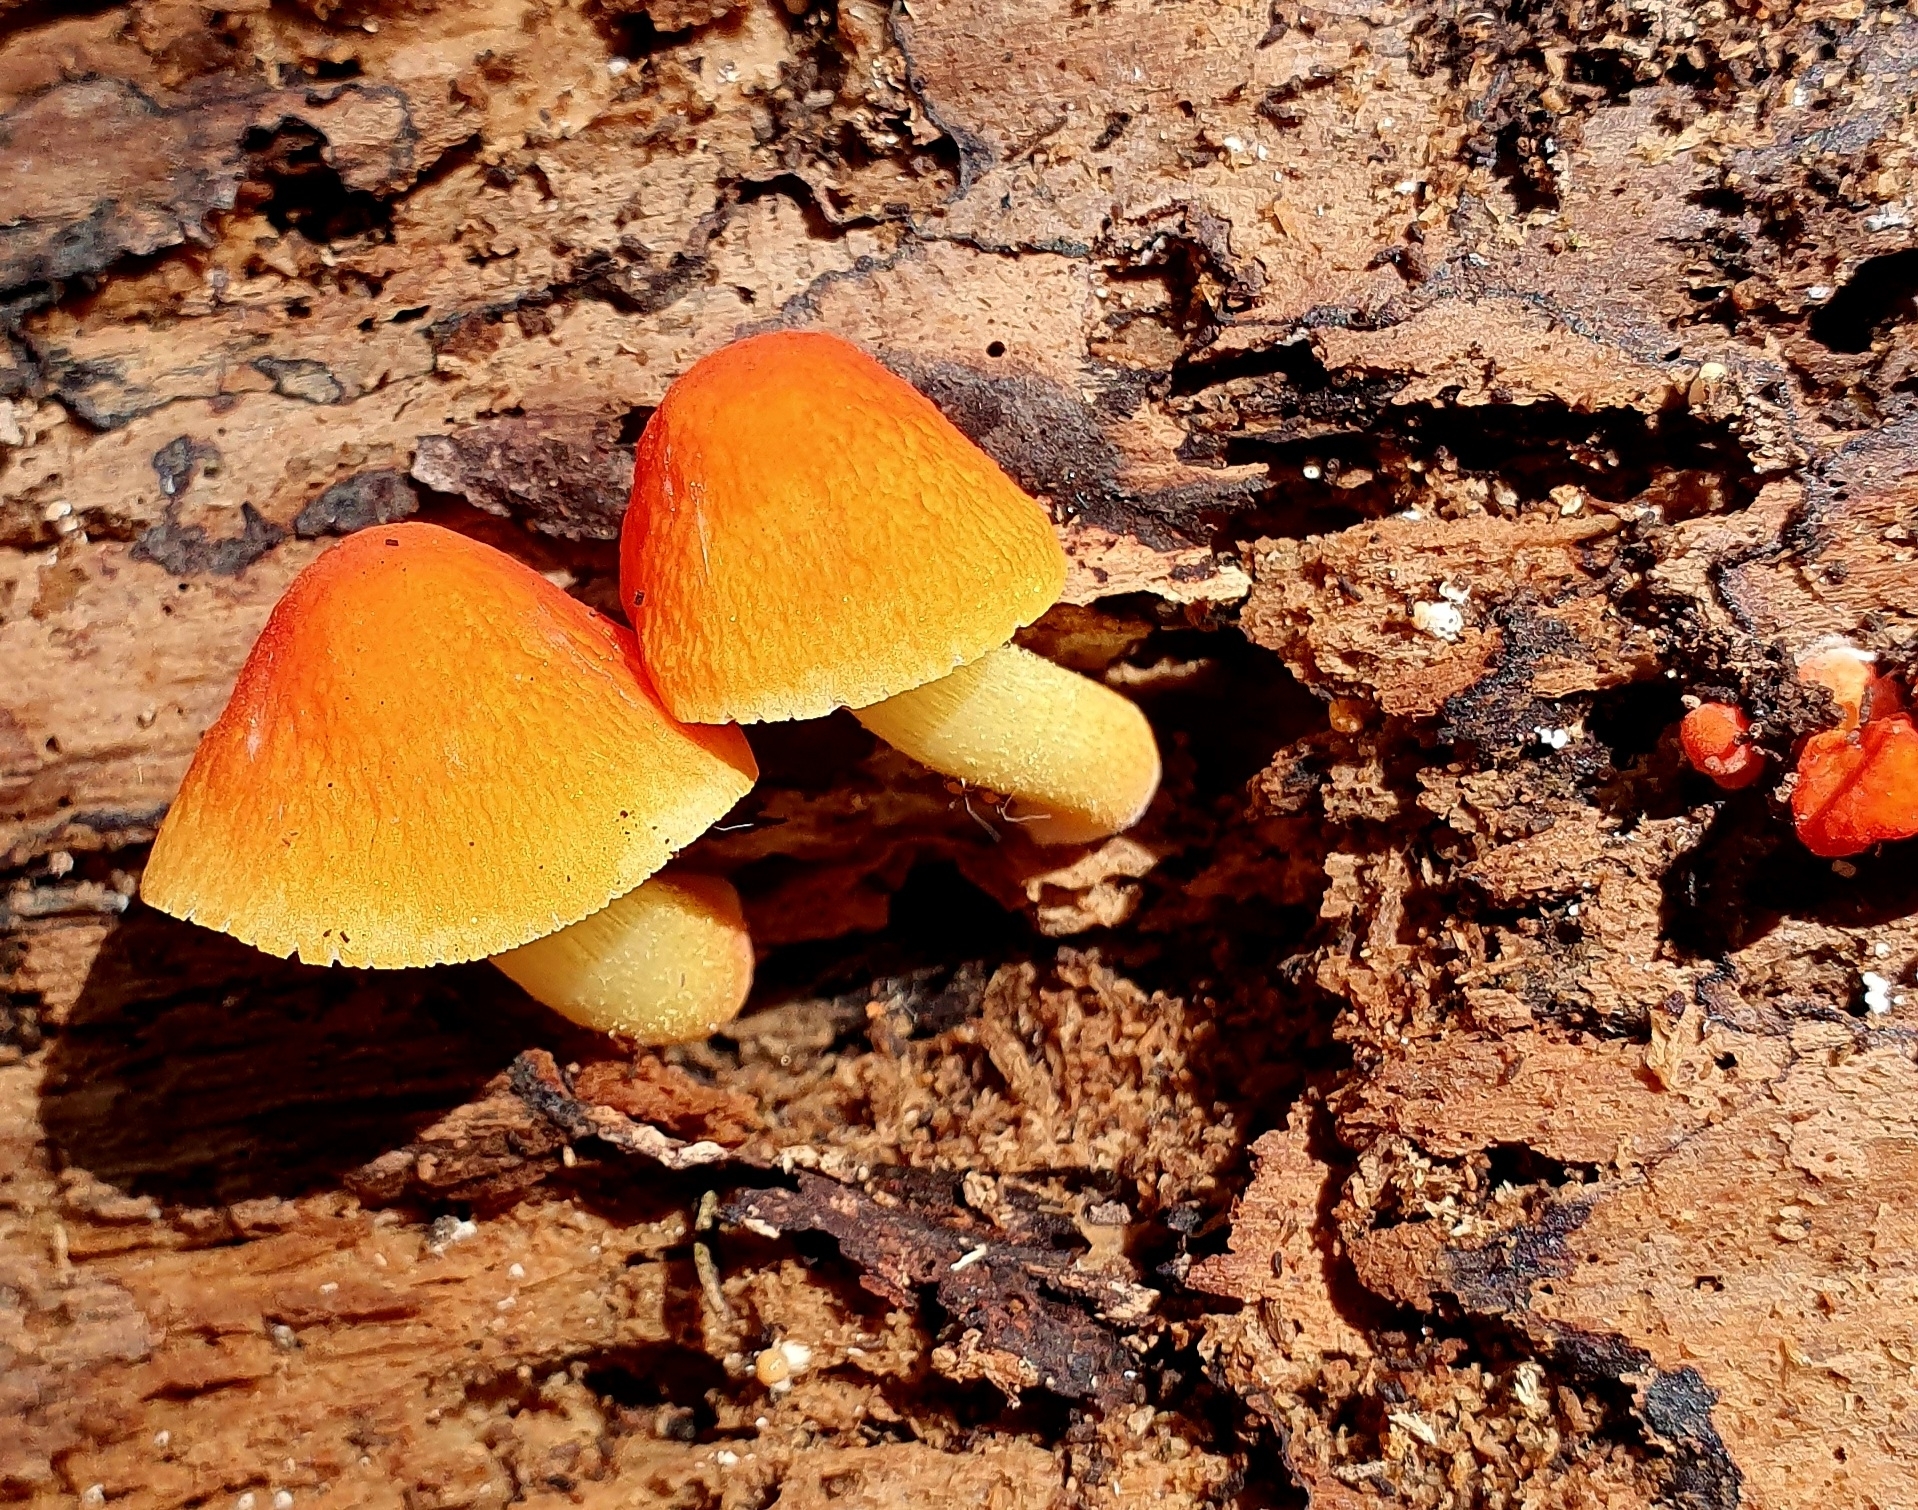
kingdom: Fungi
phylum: Basidiomycota
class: Agaricomycetes
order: Agaricales
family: Pluteaceae
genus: Pluteus
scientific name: Pluteus aurantiorugosus
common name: Flame shield
